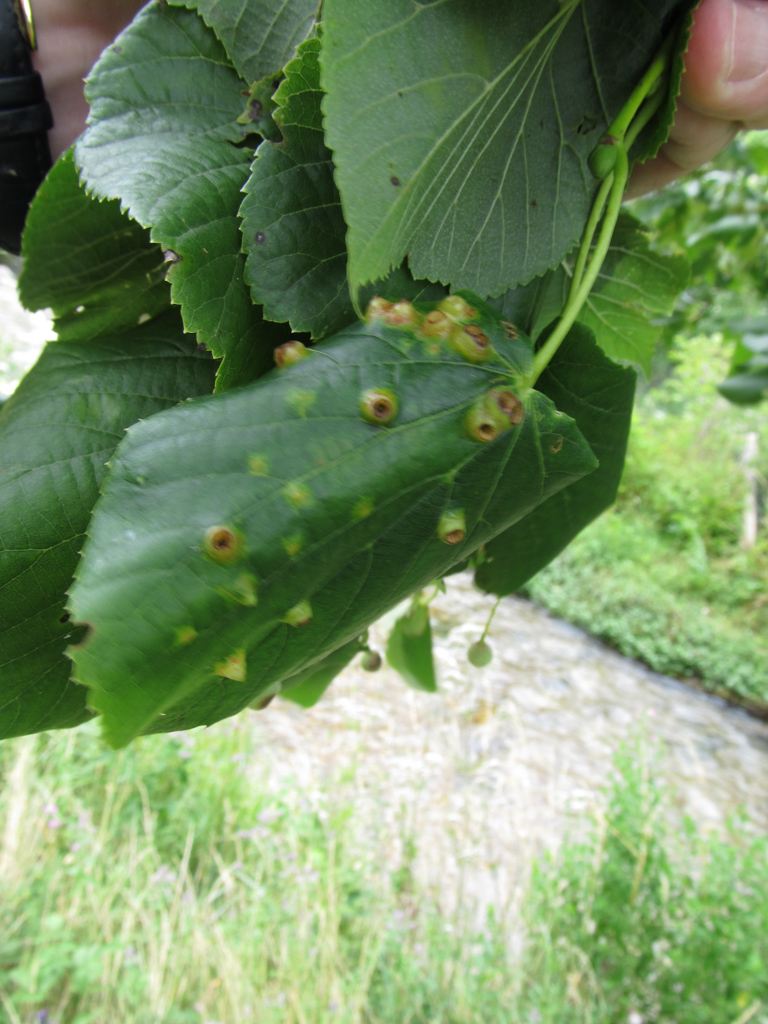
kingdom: Animalia
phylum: Arthropoda
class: Insecta
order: Diptera
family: Cecidomyiidae
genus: Didymomyia
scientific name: Didymomyia tiliacea
